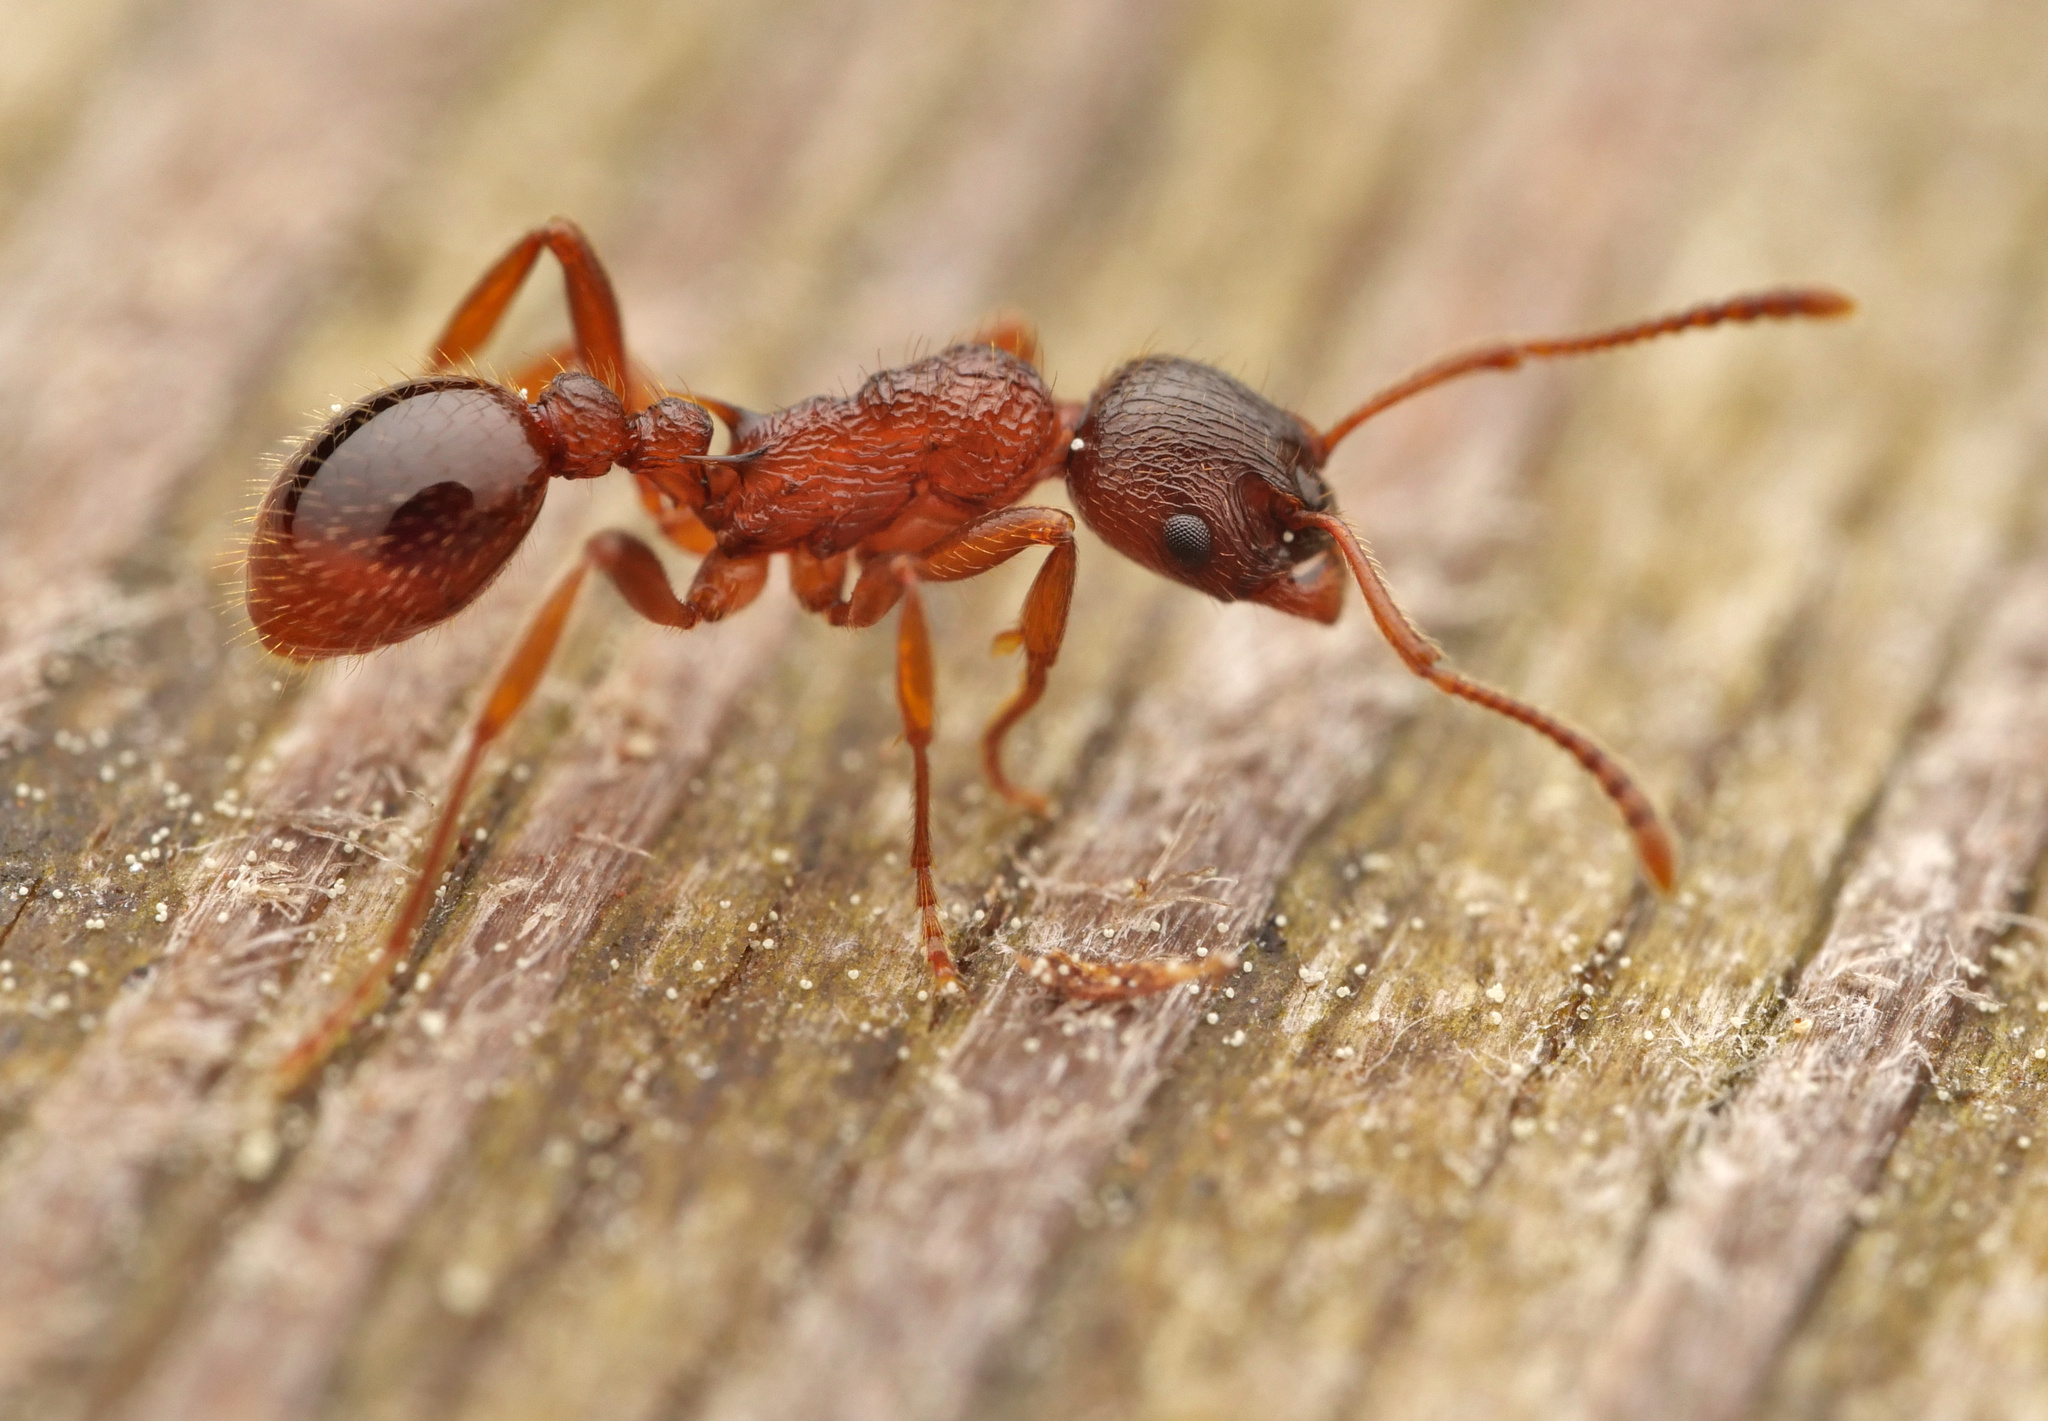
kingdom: Animalia
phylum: Arthropoda
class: Insecta
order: Hymenoptera
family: Formicidae
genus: Myrmica
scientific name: Myrmica ruginodis
